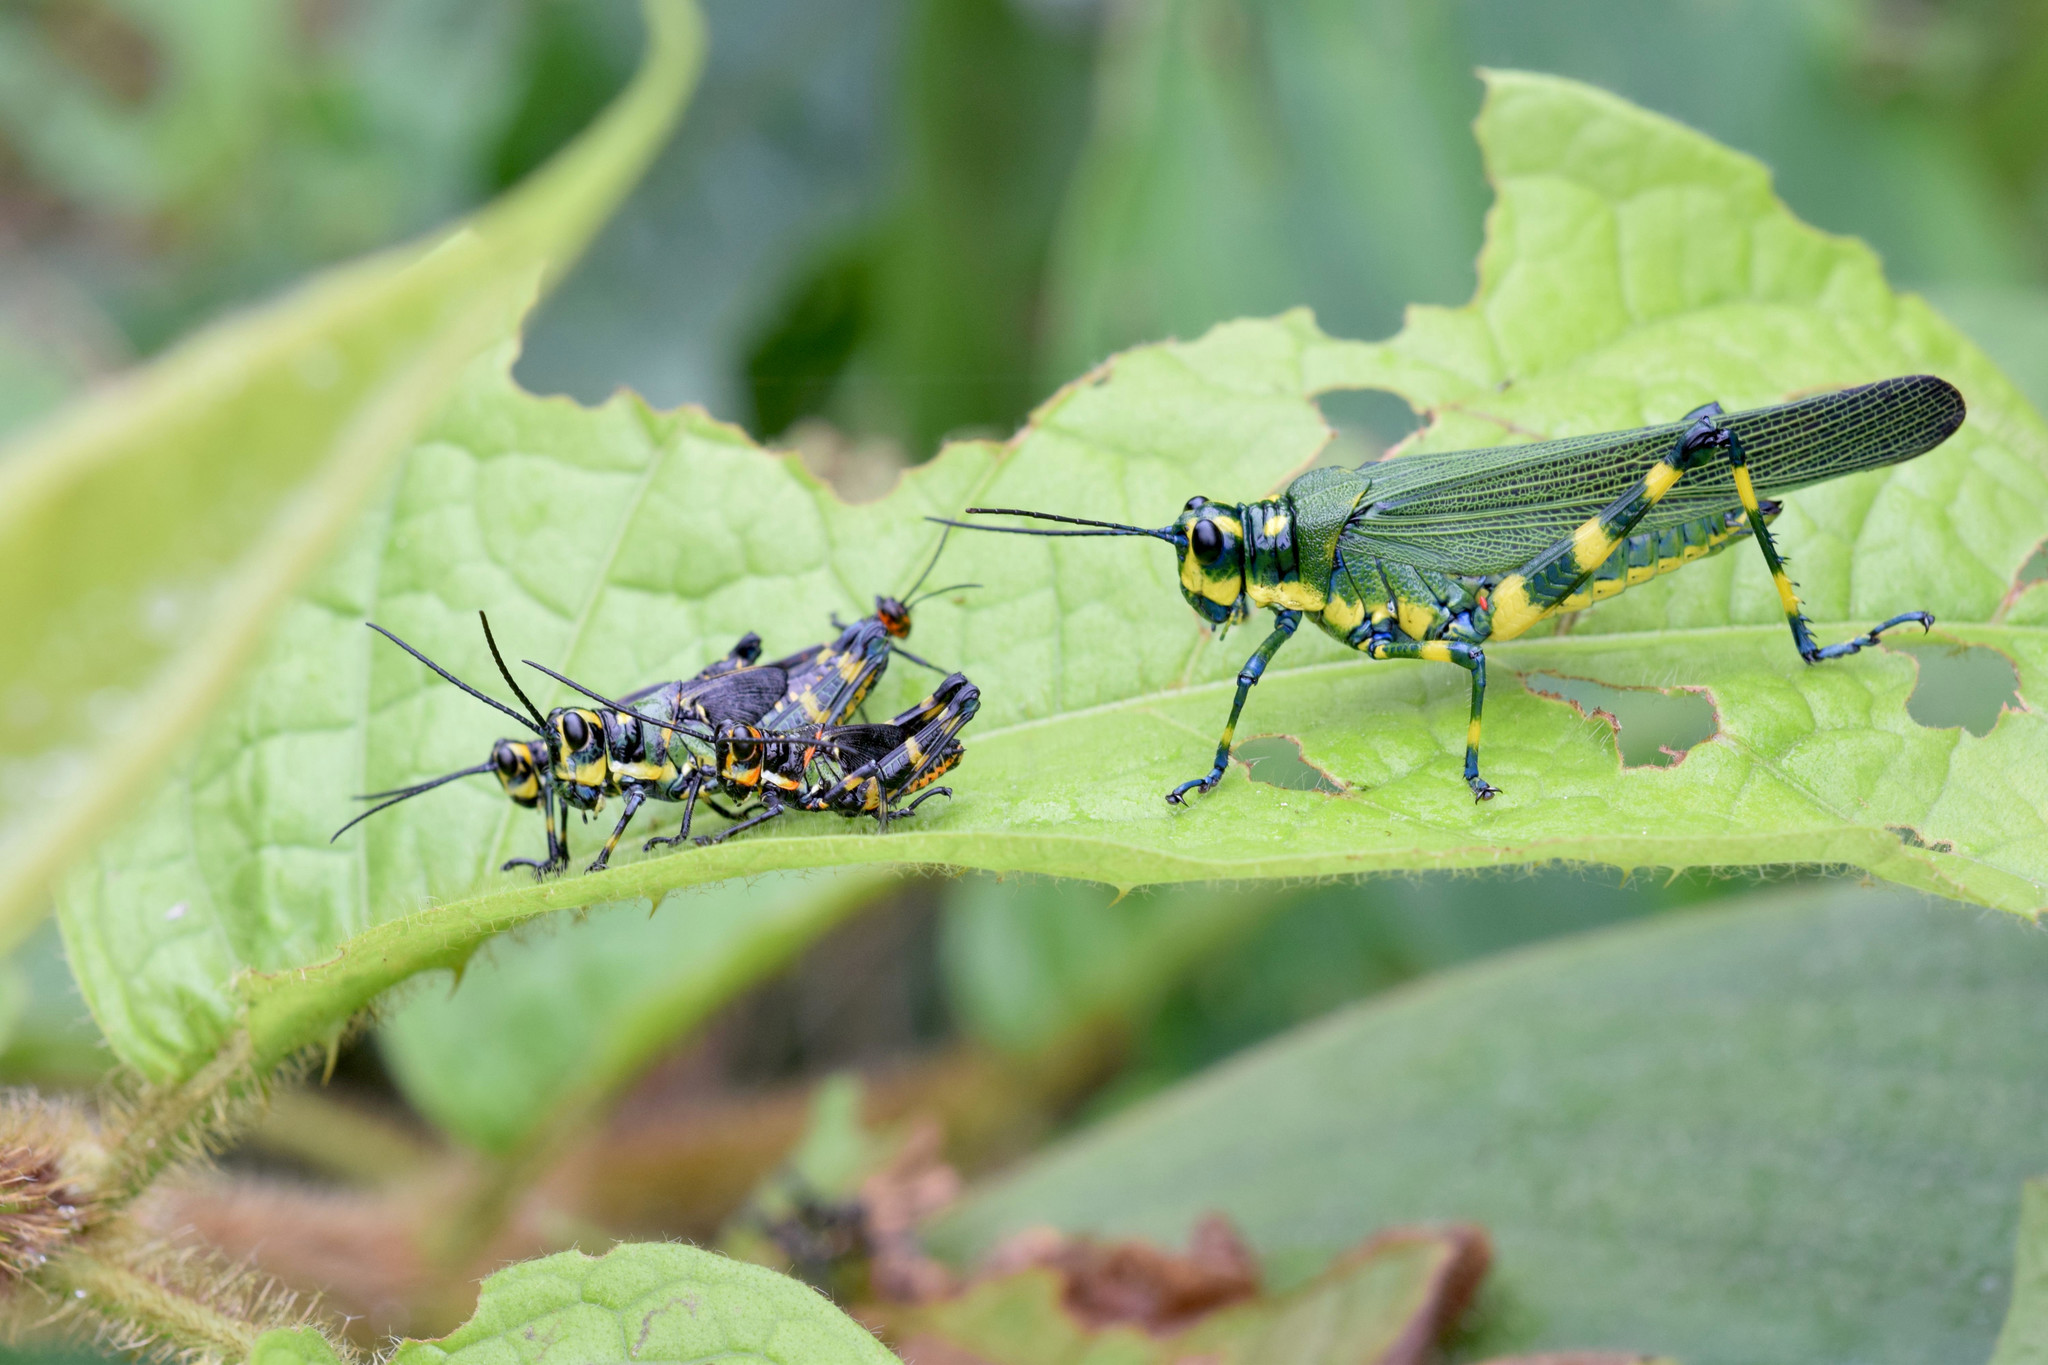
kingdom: Animalia
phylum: Arthropoda
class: Insecta
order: Orthoptera
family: Romaleidae
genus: Chromacris
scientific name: Chromacris psittacus
